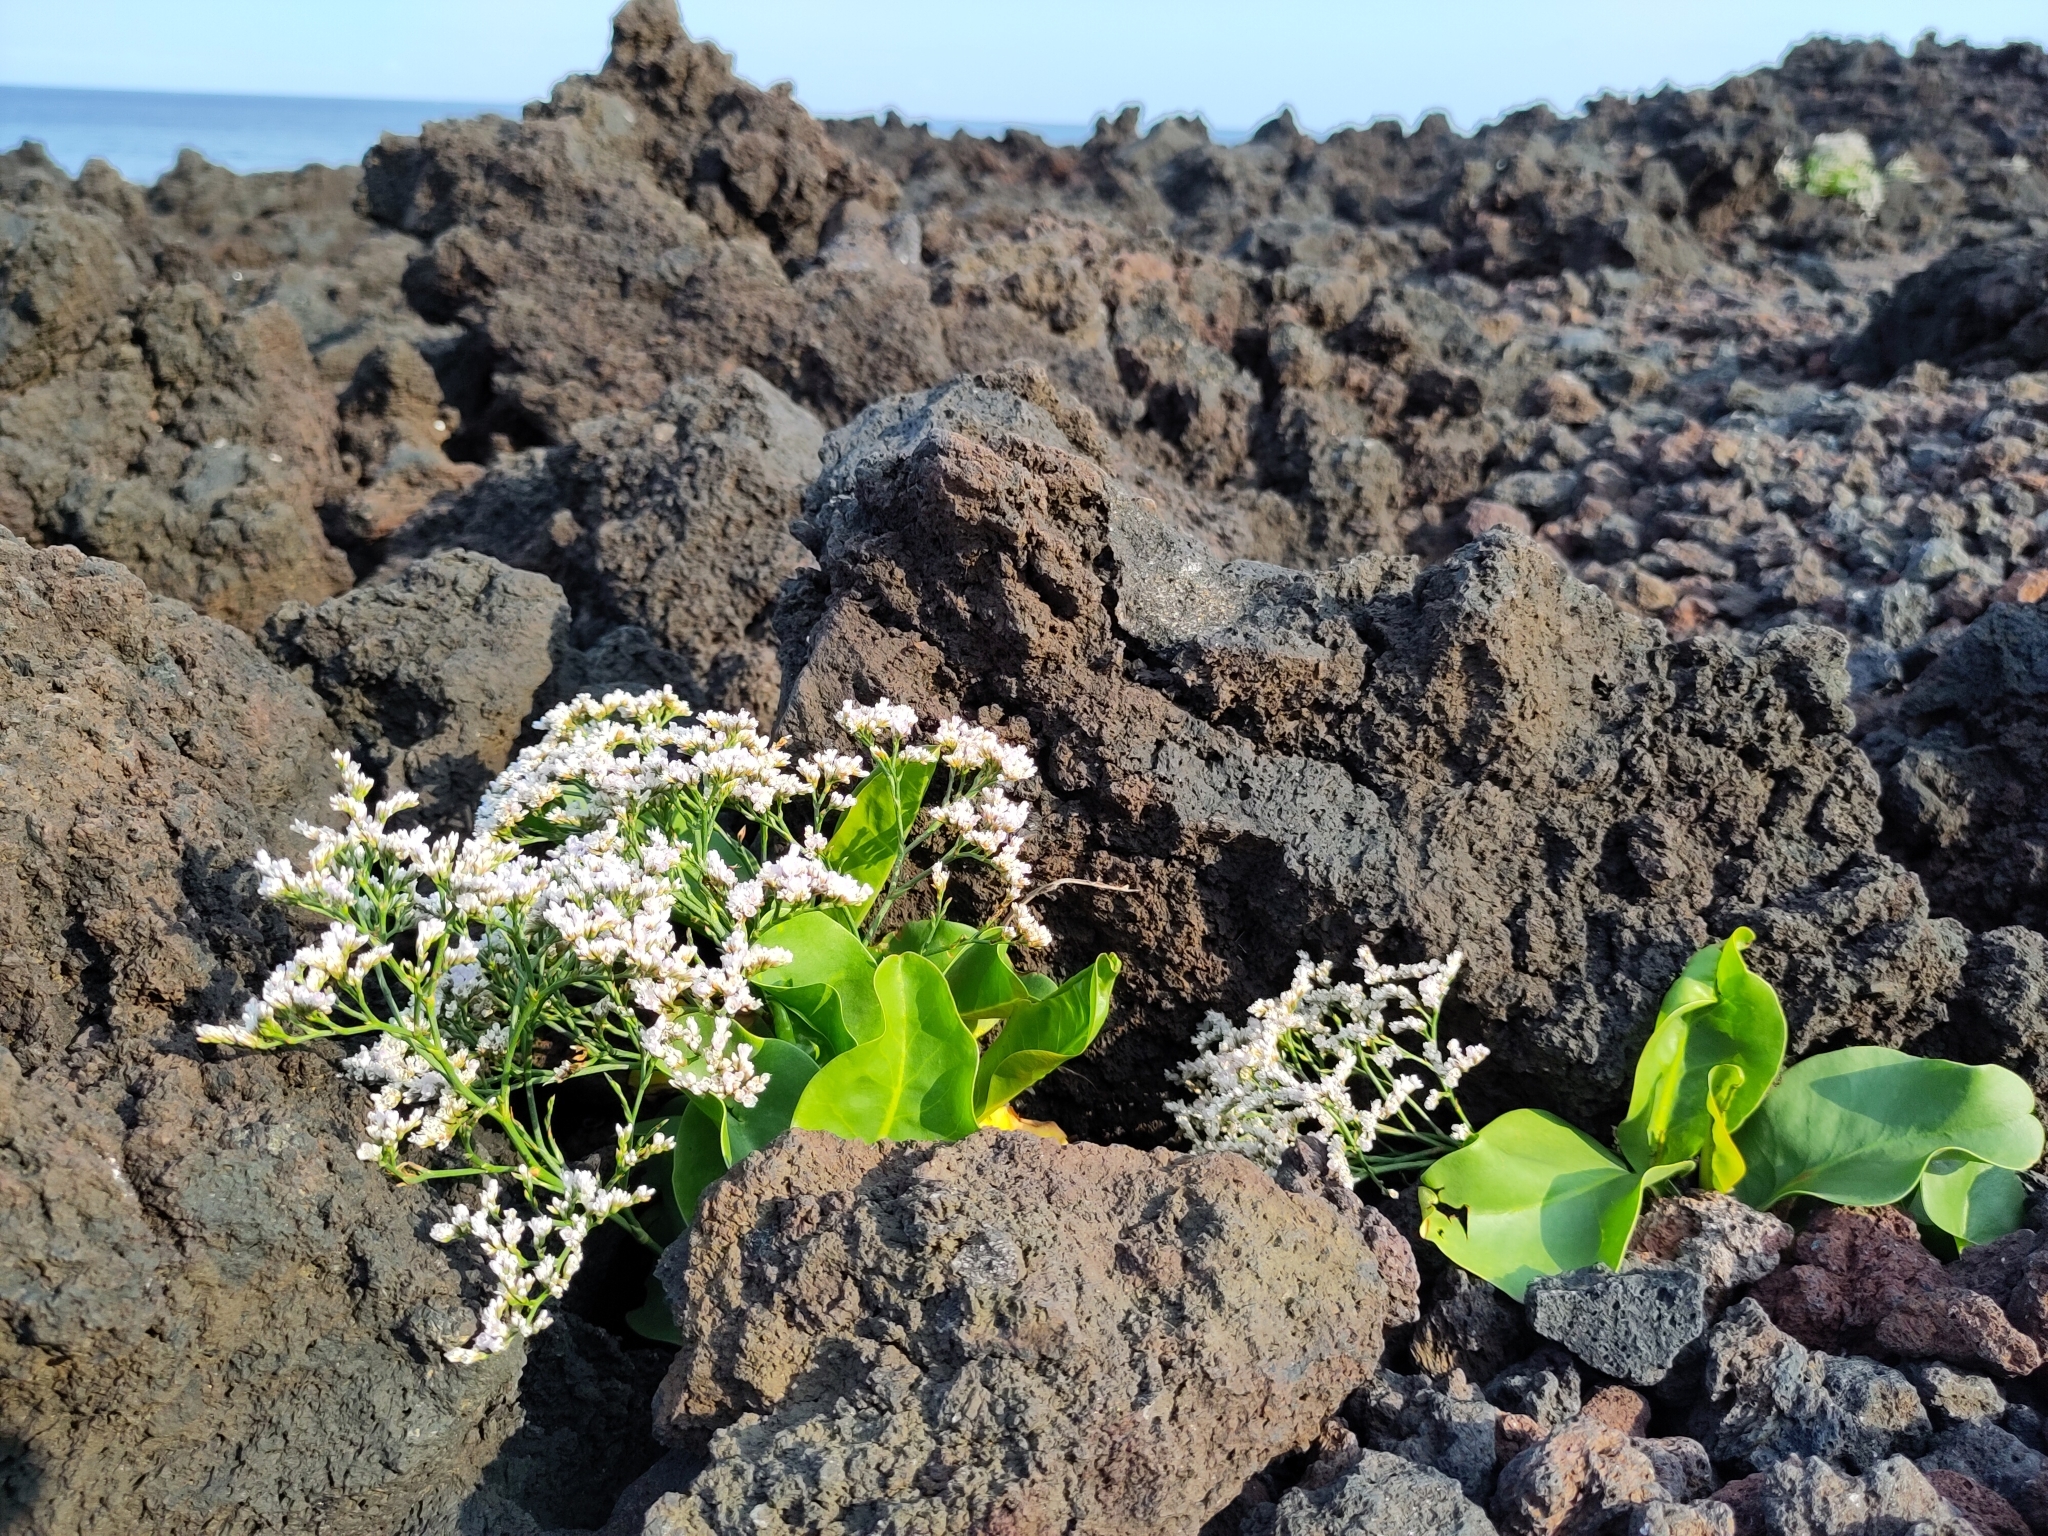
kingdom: Plantae
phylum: Tracheophyta
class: Magnoliopsida
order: Caryophyllales
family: Plumbaginaceae
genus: Limonium
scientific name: Limonium eduardi-diasii
